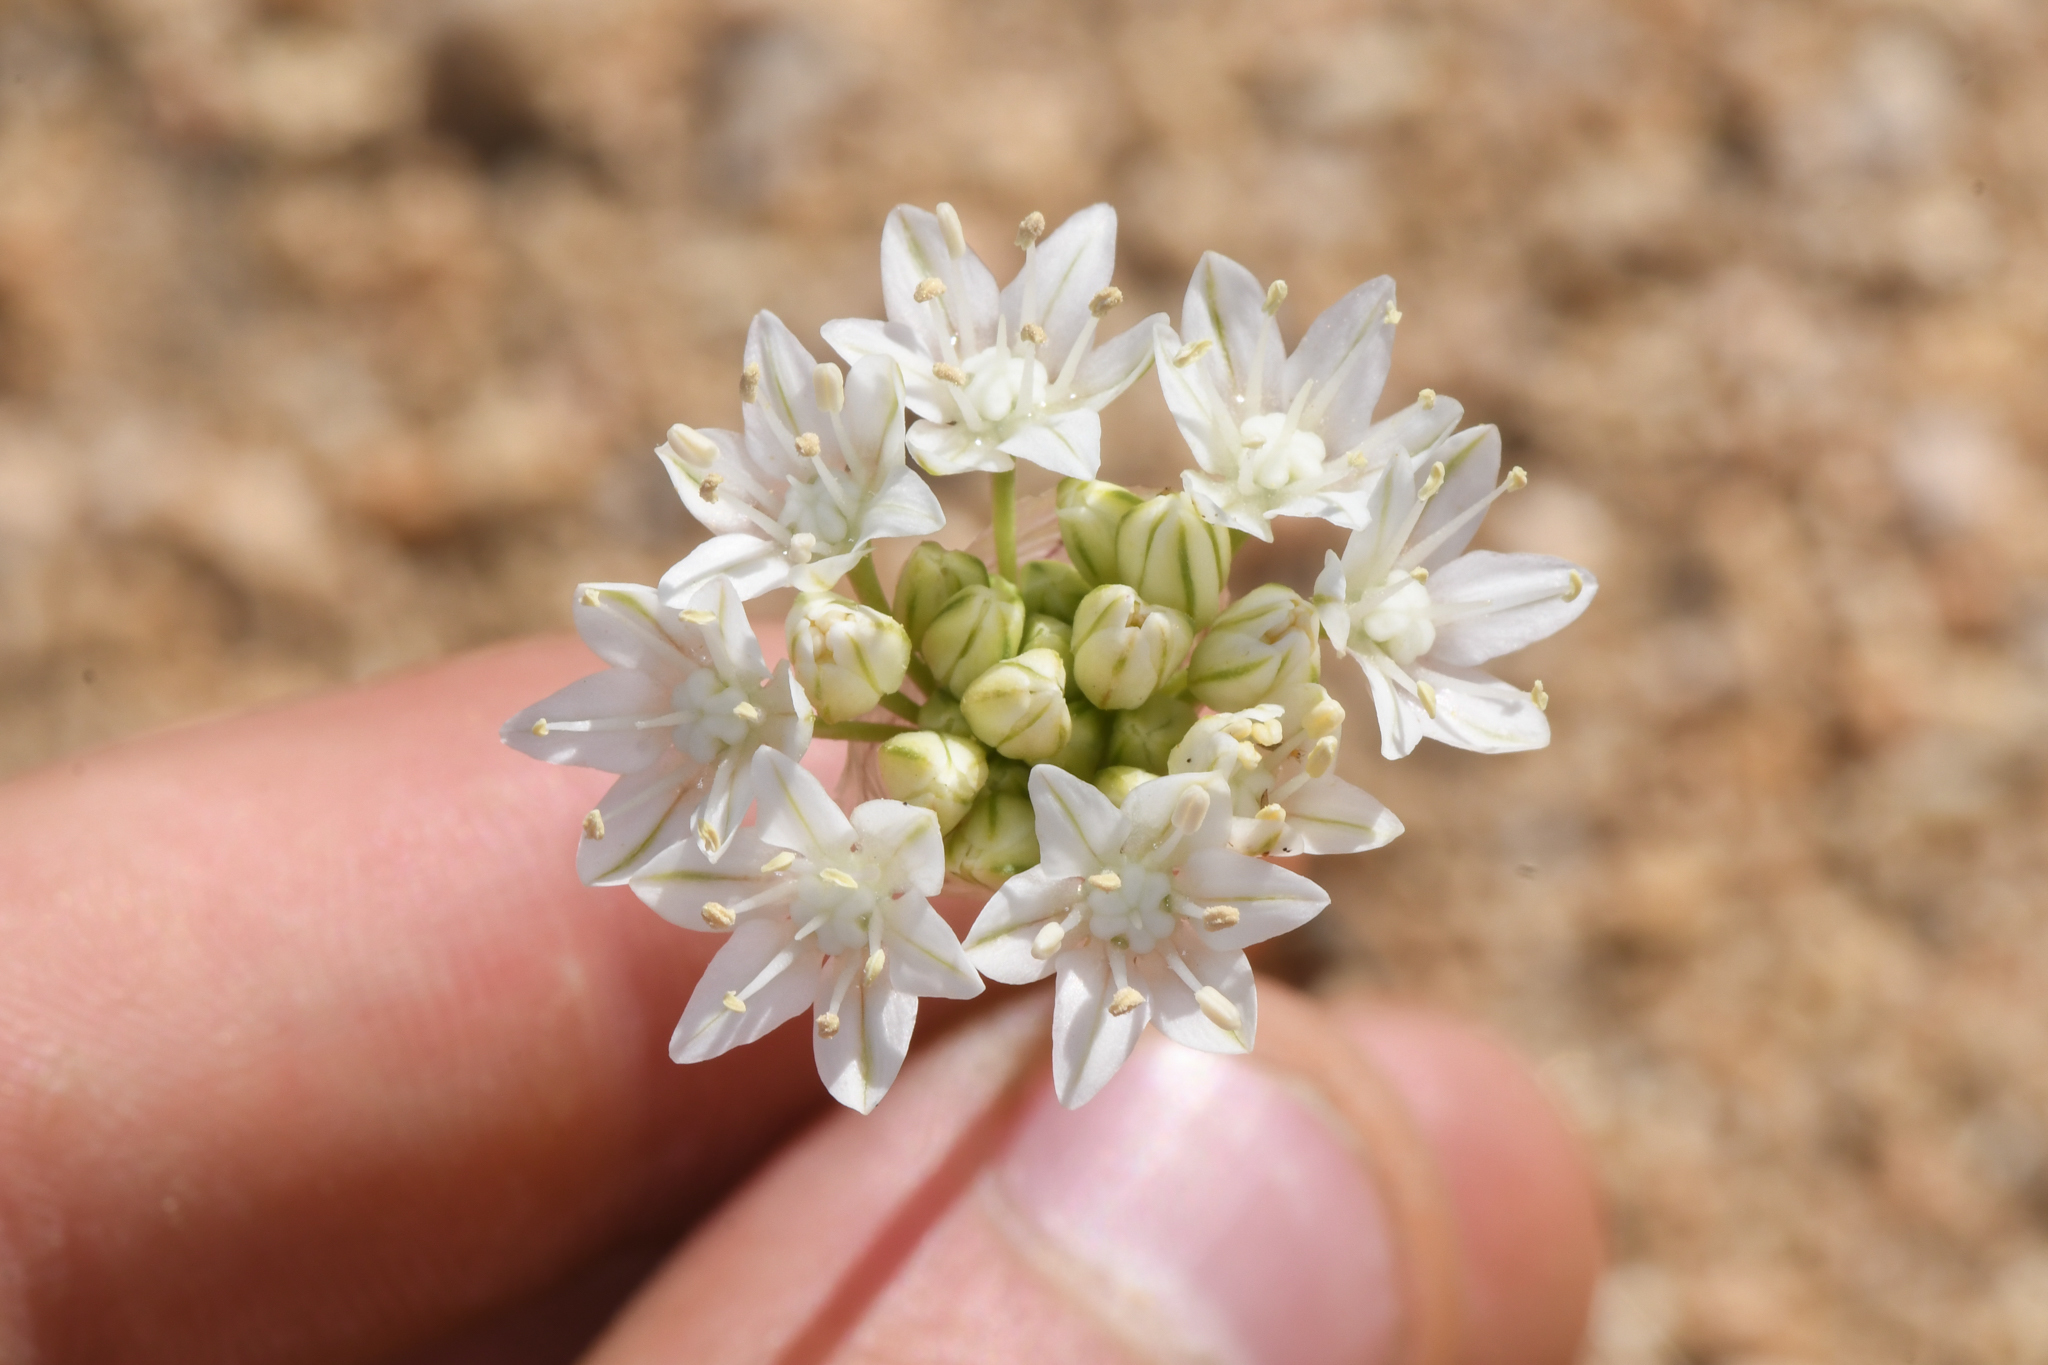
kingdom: Plantae
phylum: Tracheophyta
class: Liliopsida
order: Asparagales
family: Amaryllidaceae
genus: Allium
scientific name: Allium lacunosum
